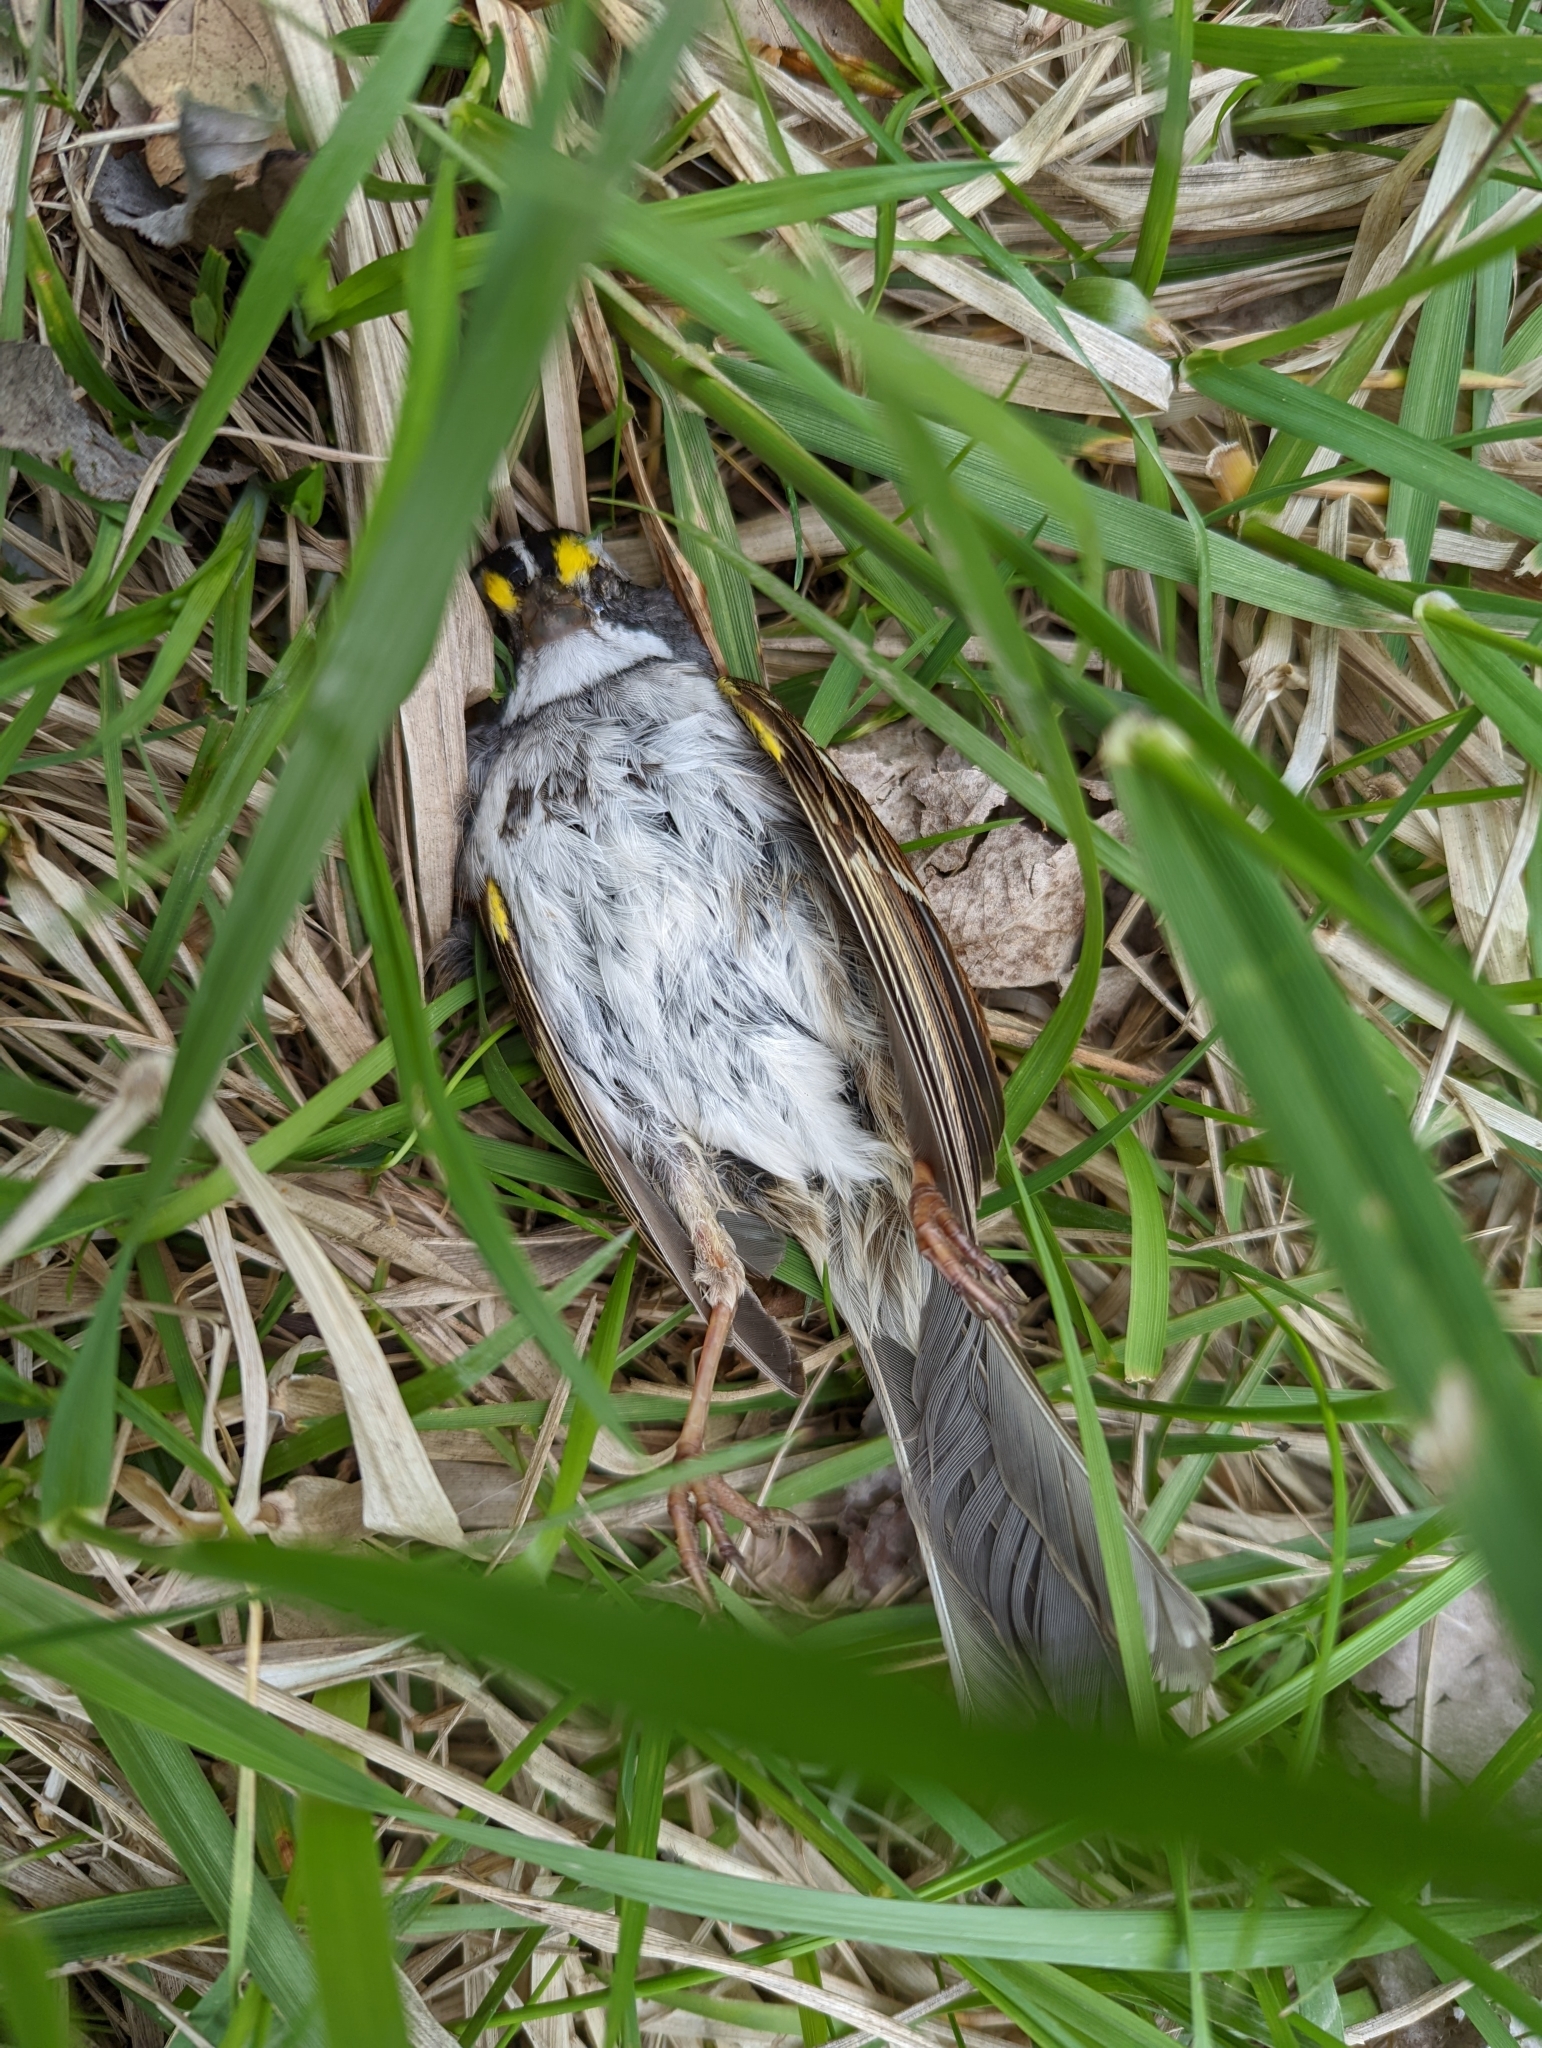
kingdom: Animalia
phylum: Chordata
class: Aves
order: Passeriformes
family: Passerellidae
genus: Zonotrichia
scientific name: Zonotrichia albicollis
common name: White-throated sparrow
